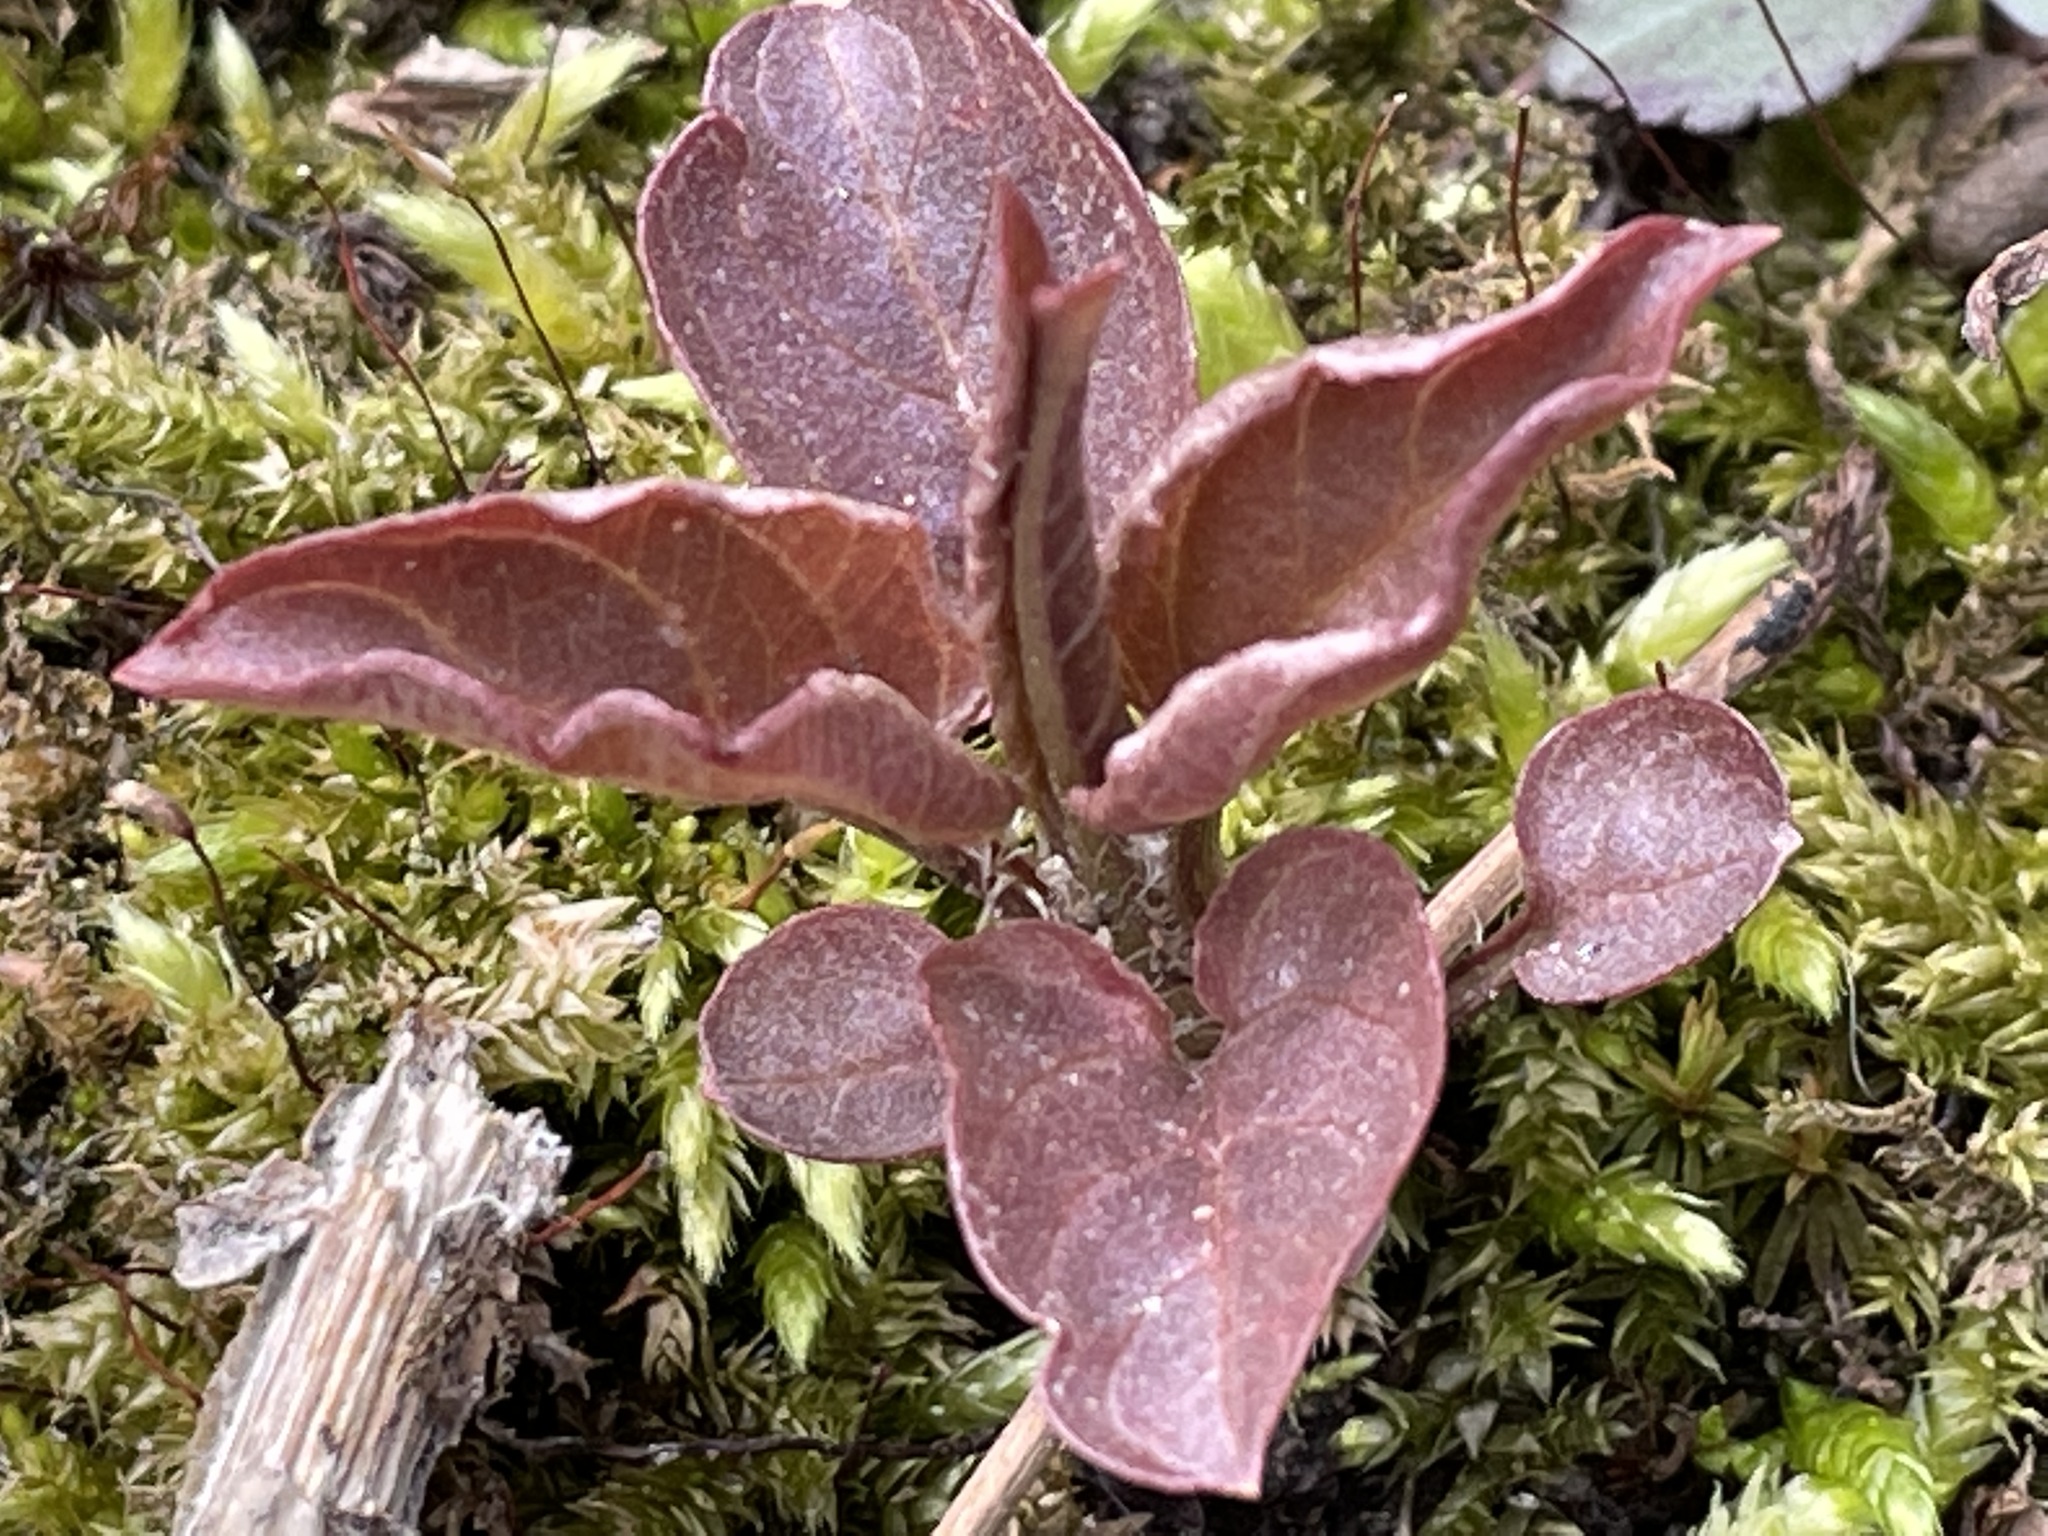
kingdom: Plantae
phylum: Tracheophyta
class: Magnoliopsida
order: Ericales
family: Primulaceae
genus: Lysimachia
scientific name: Lysimachia ciliata
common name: Fringed loosestrife
